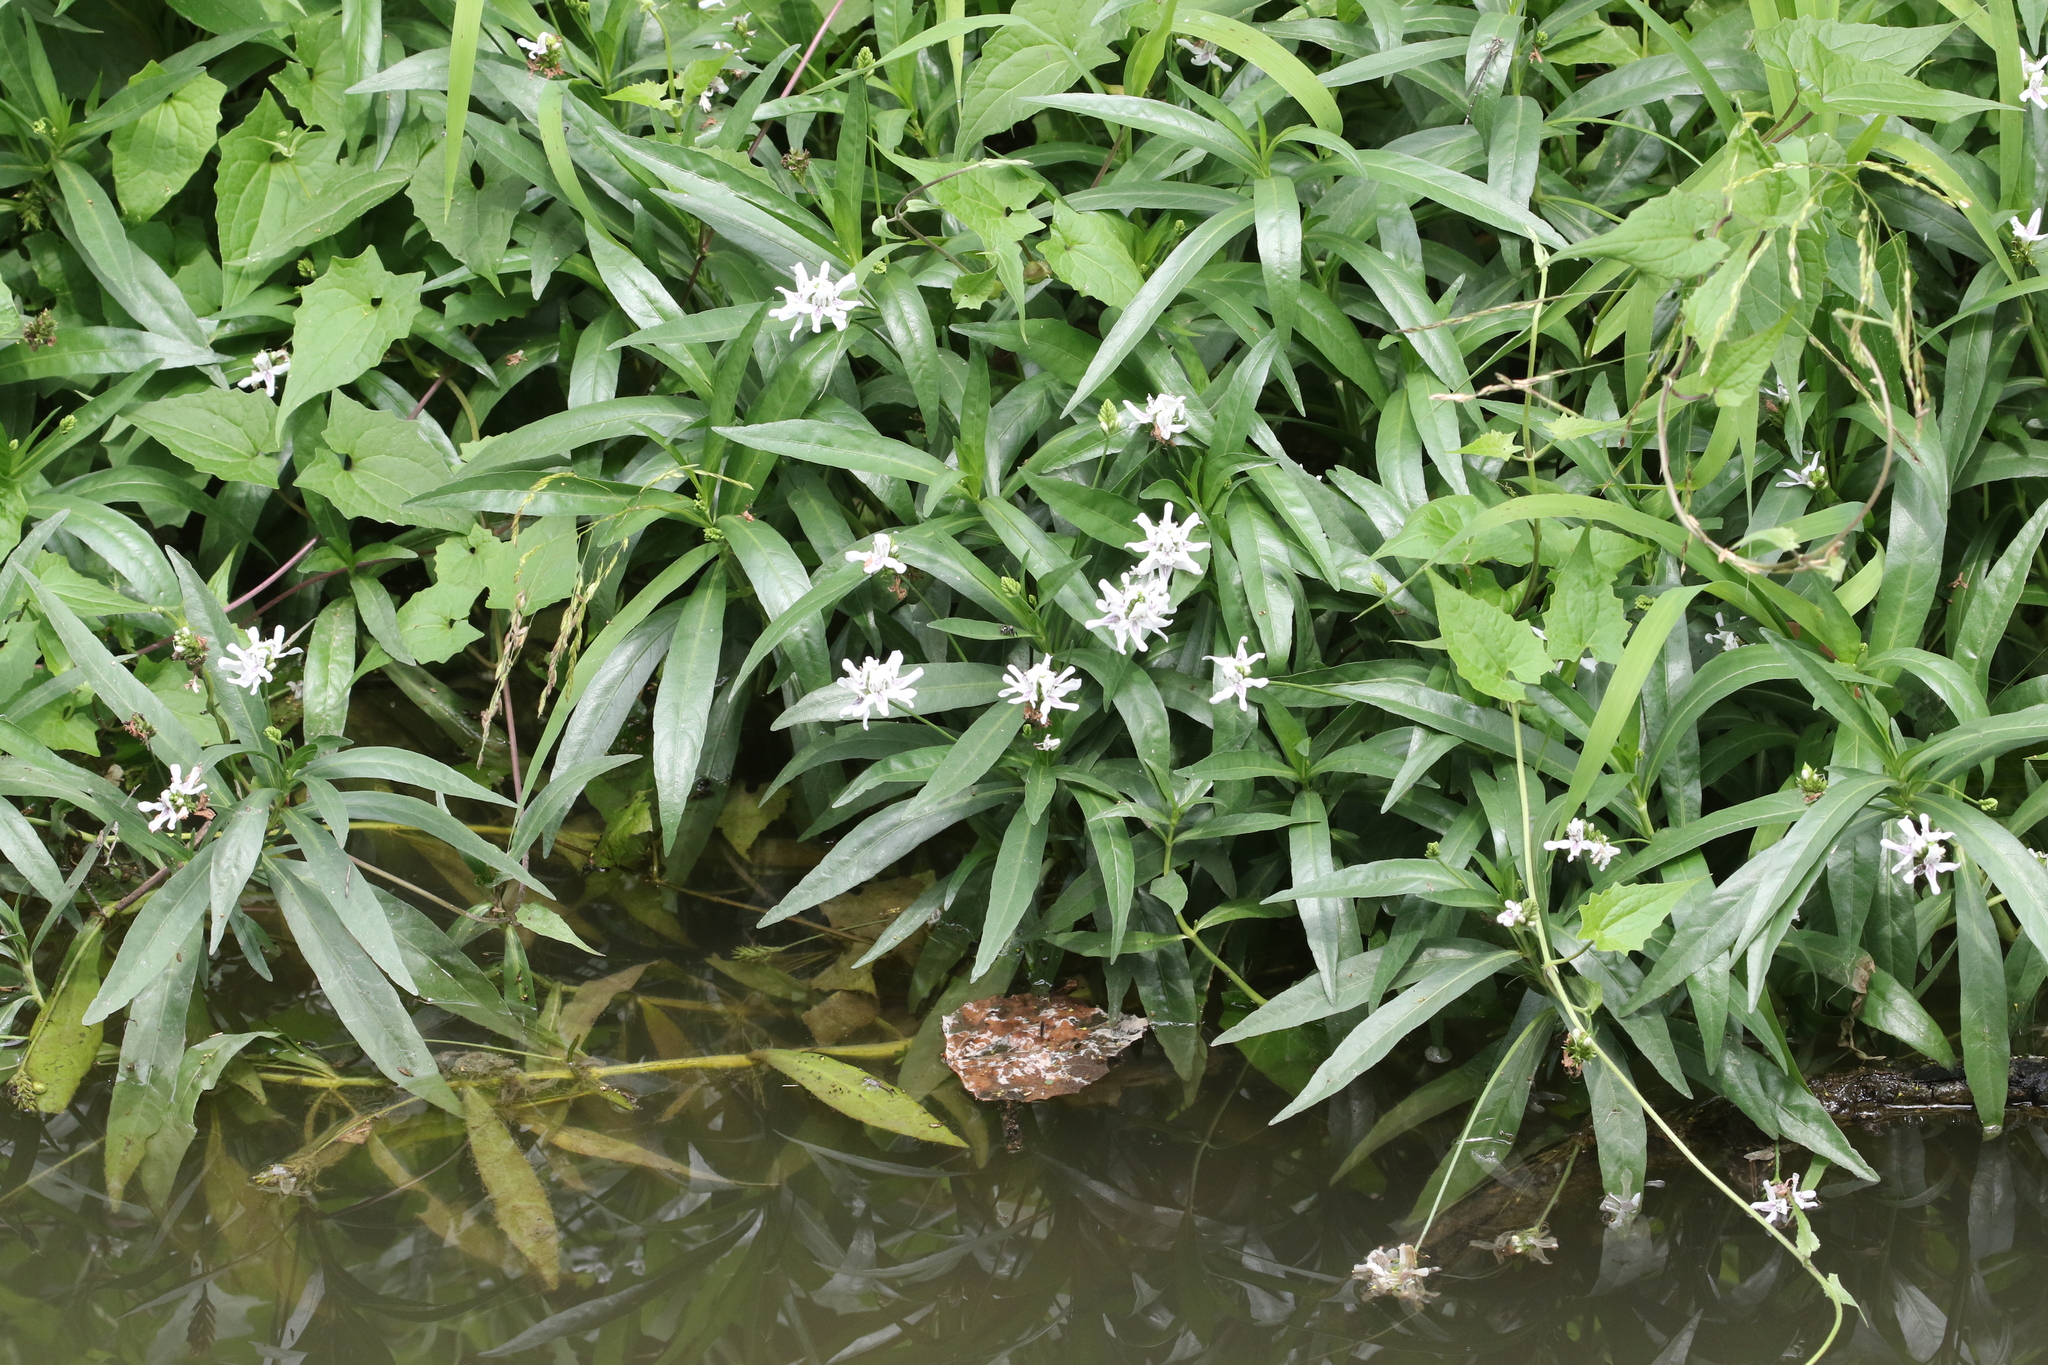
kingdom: Plantae
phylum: Tracheophyta
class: Magnoliopsida
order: Lamiales
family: Acanthaceae
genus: Dianthera
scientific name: Dianthera americana
